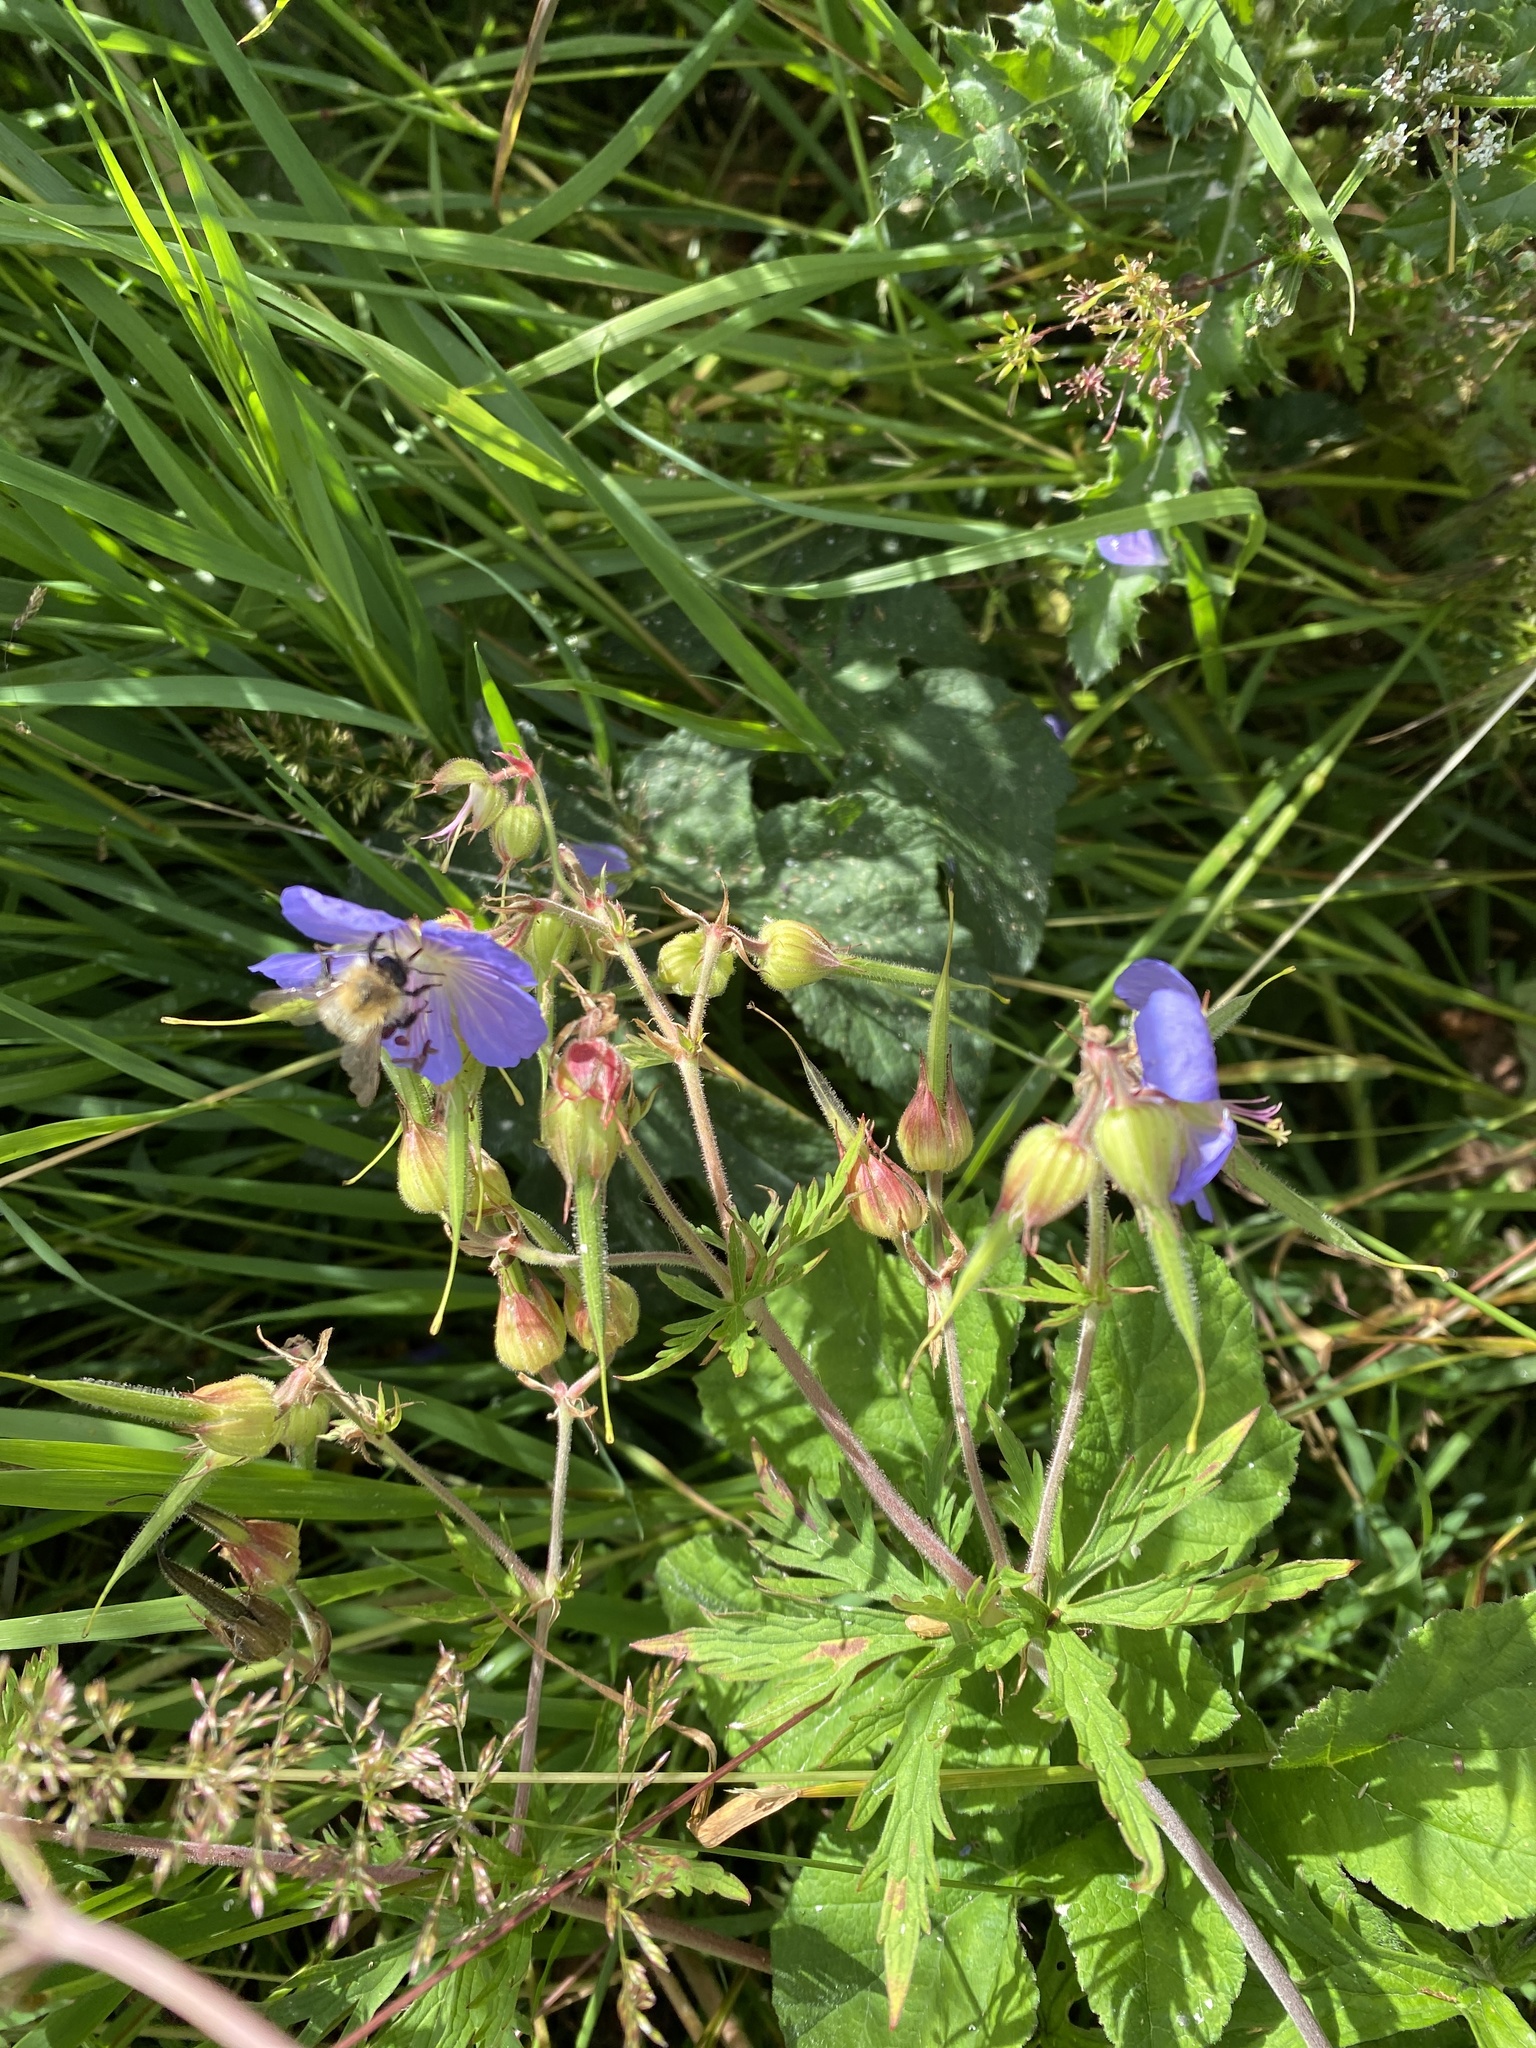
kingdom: Plantae
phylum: Tracheophyta
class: Magnoliopsida
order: Geraniales
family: Geraniaceae
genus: Geranium
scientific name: Geranium pratense
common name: Meadow crane's-bill
